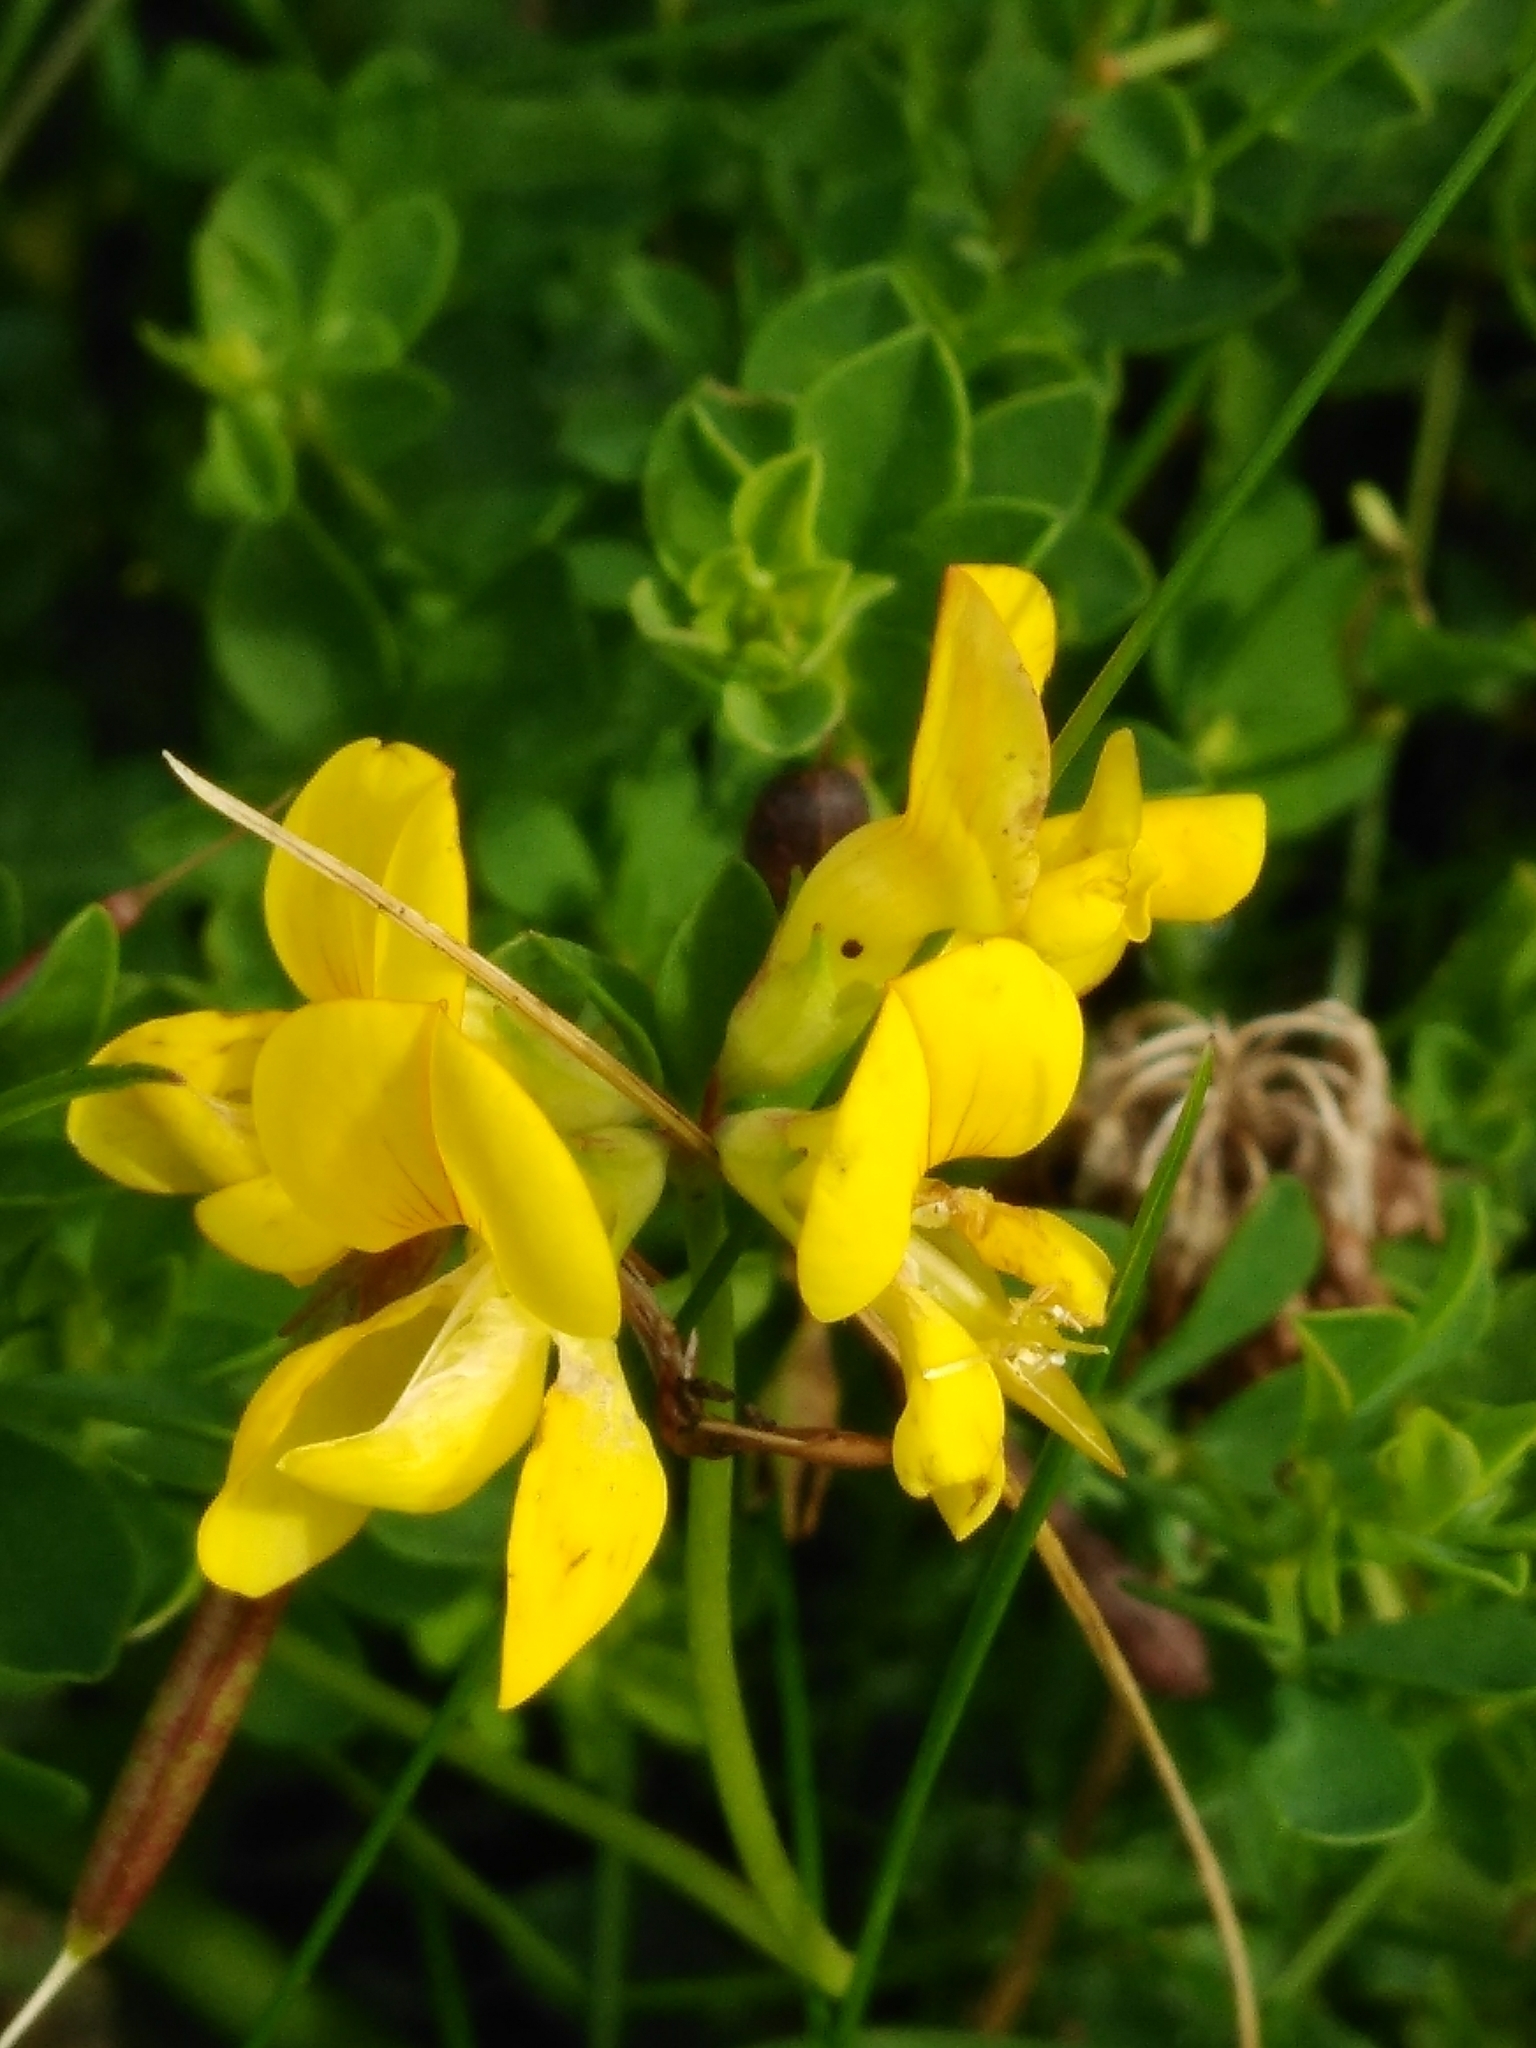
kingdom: Plantae
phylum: Tracheophyta
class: Magnoliopsida
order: Fabales
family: Fabaceae
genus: Lotus
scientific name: Lotus corniculatus
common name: Common bird's-foot-trefoil
